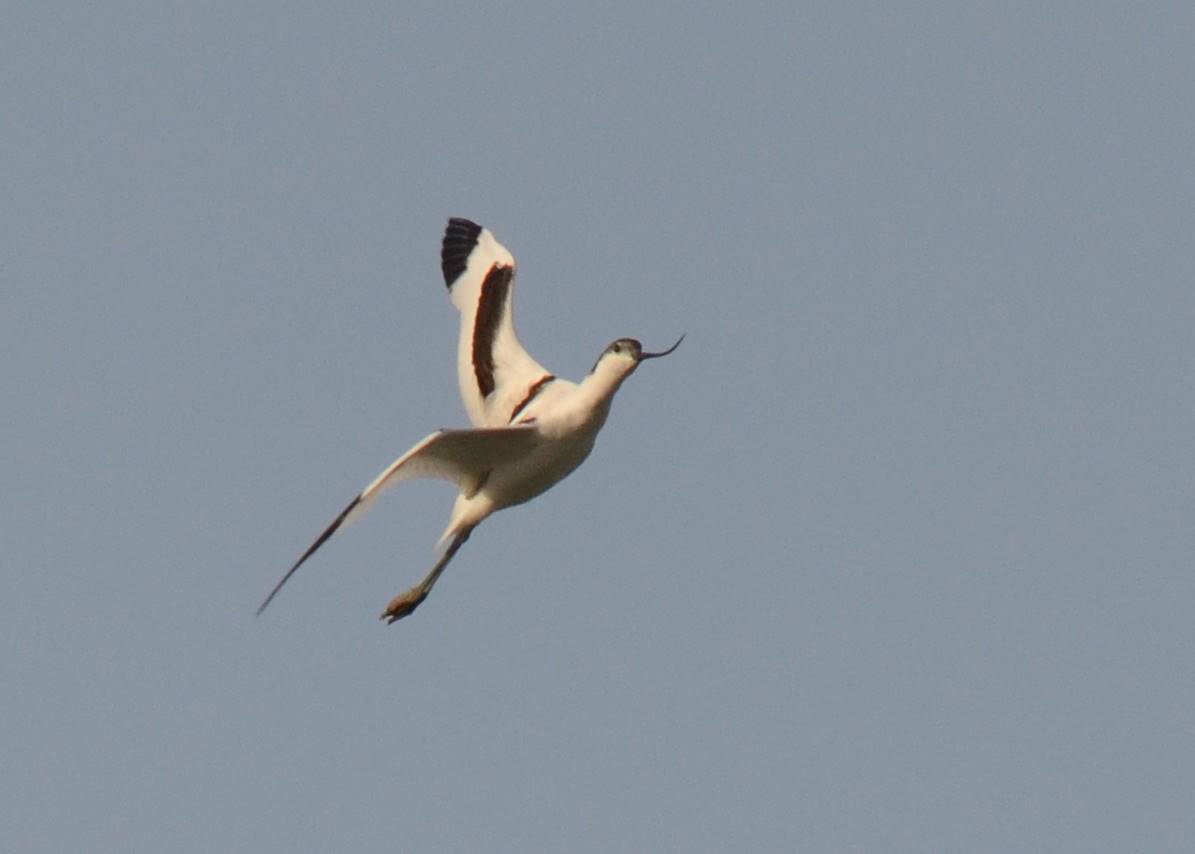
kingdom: Animalia
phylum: Chordata
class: Aves
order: Charadriiformes
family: Recurvirostridae
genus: Recurvirostra
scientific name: Recurvirostra avosetta
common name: Pied avocet
